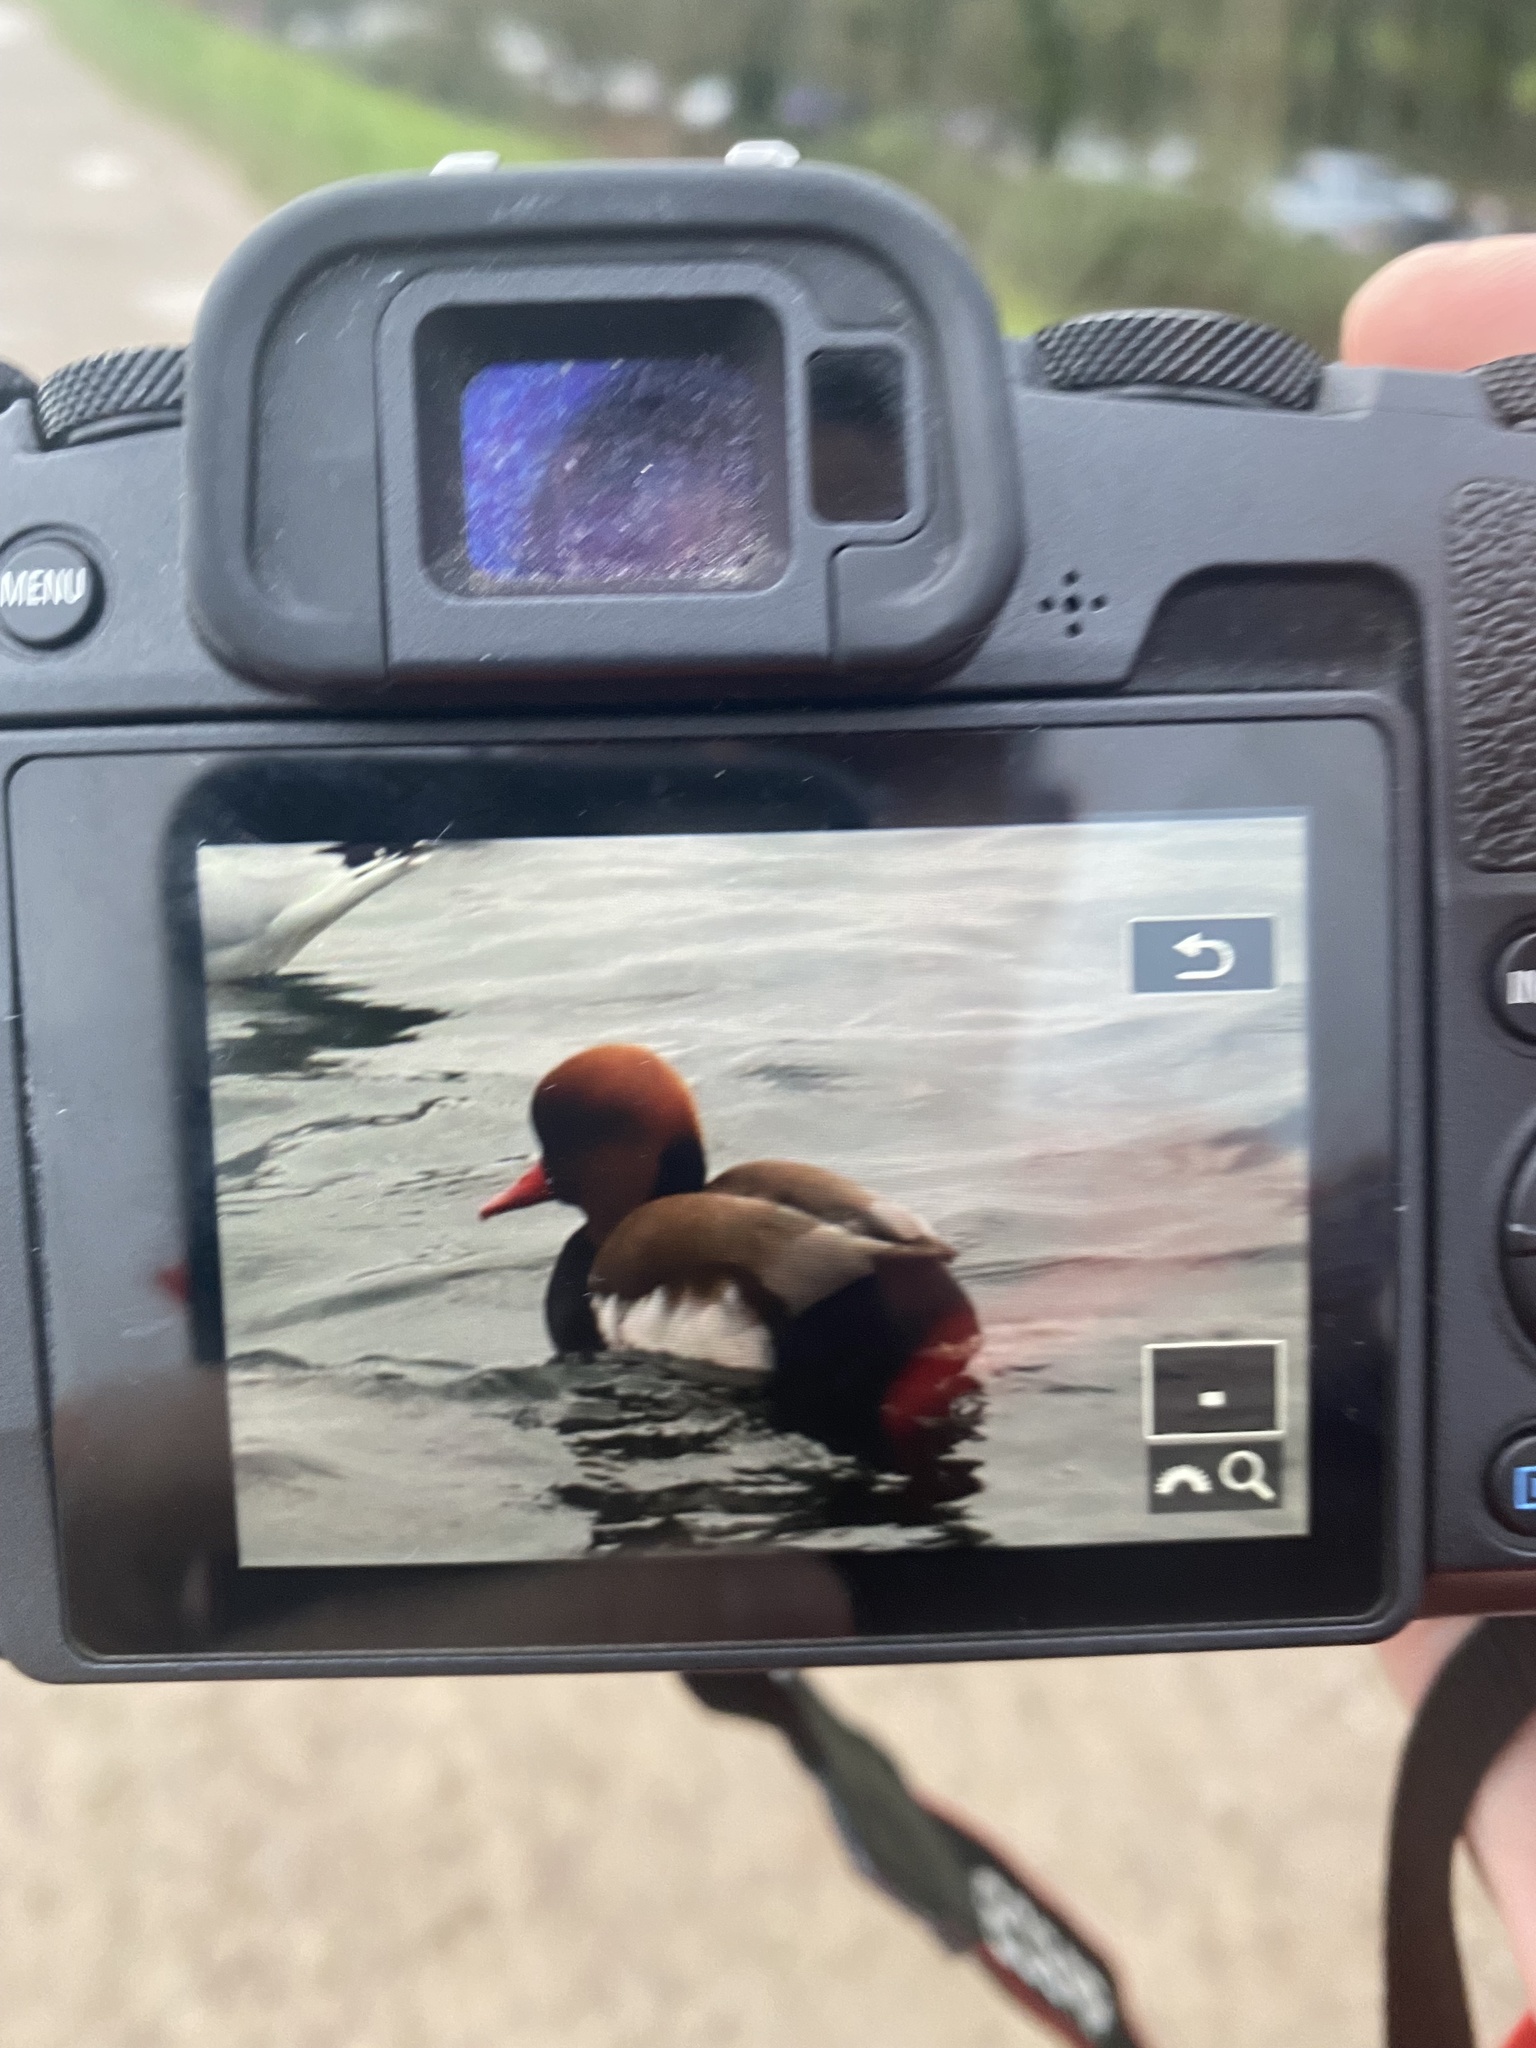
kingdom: Animalia
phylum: Chordata
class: Aves
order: Anseriformes
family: Anatidae
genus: Netta
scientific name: Netta rufina
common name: Red-crested pochard
